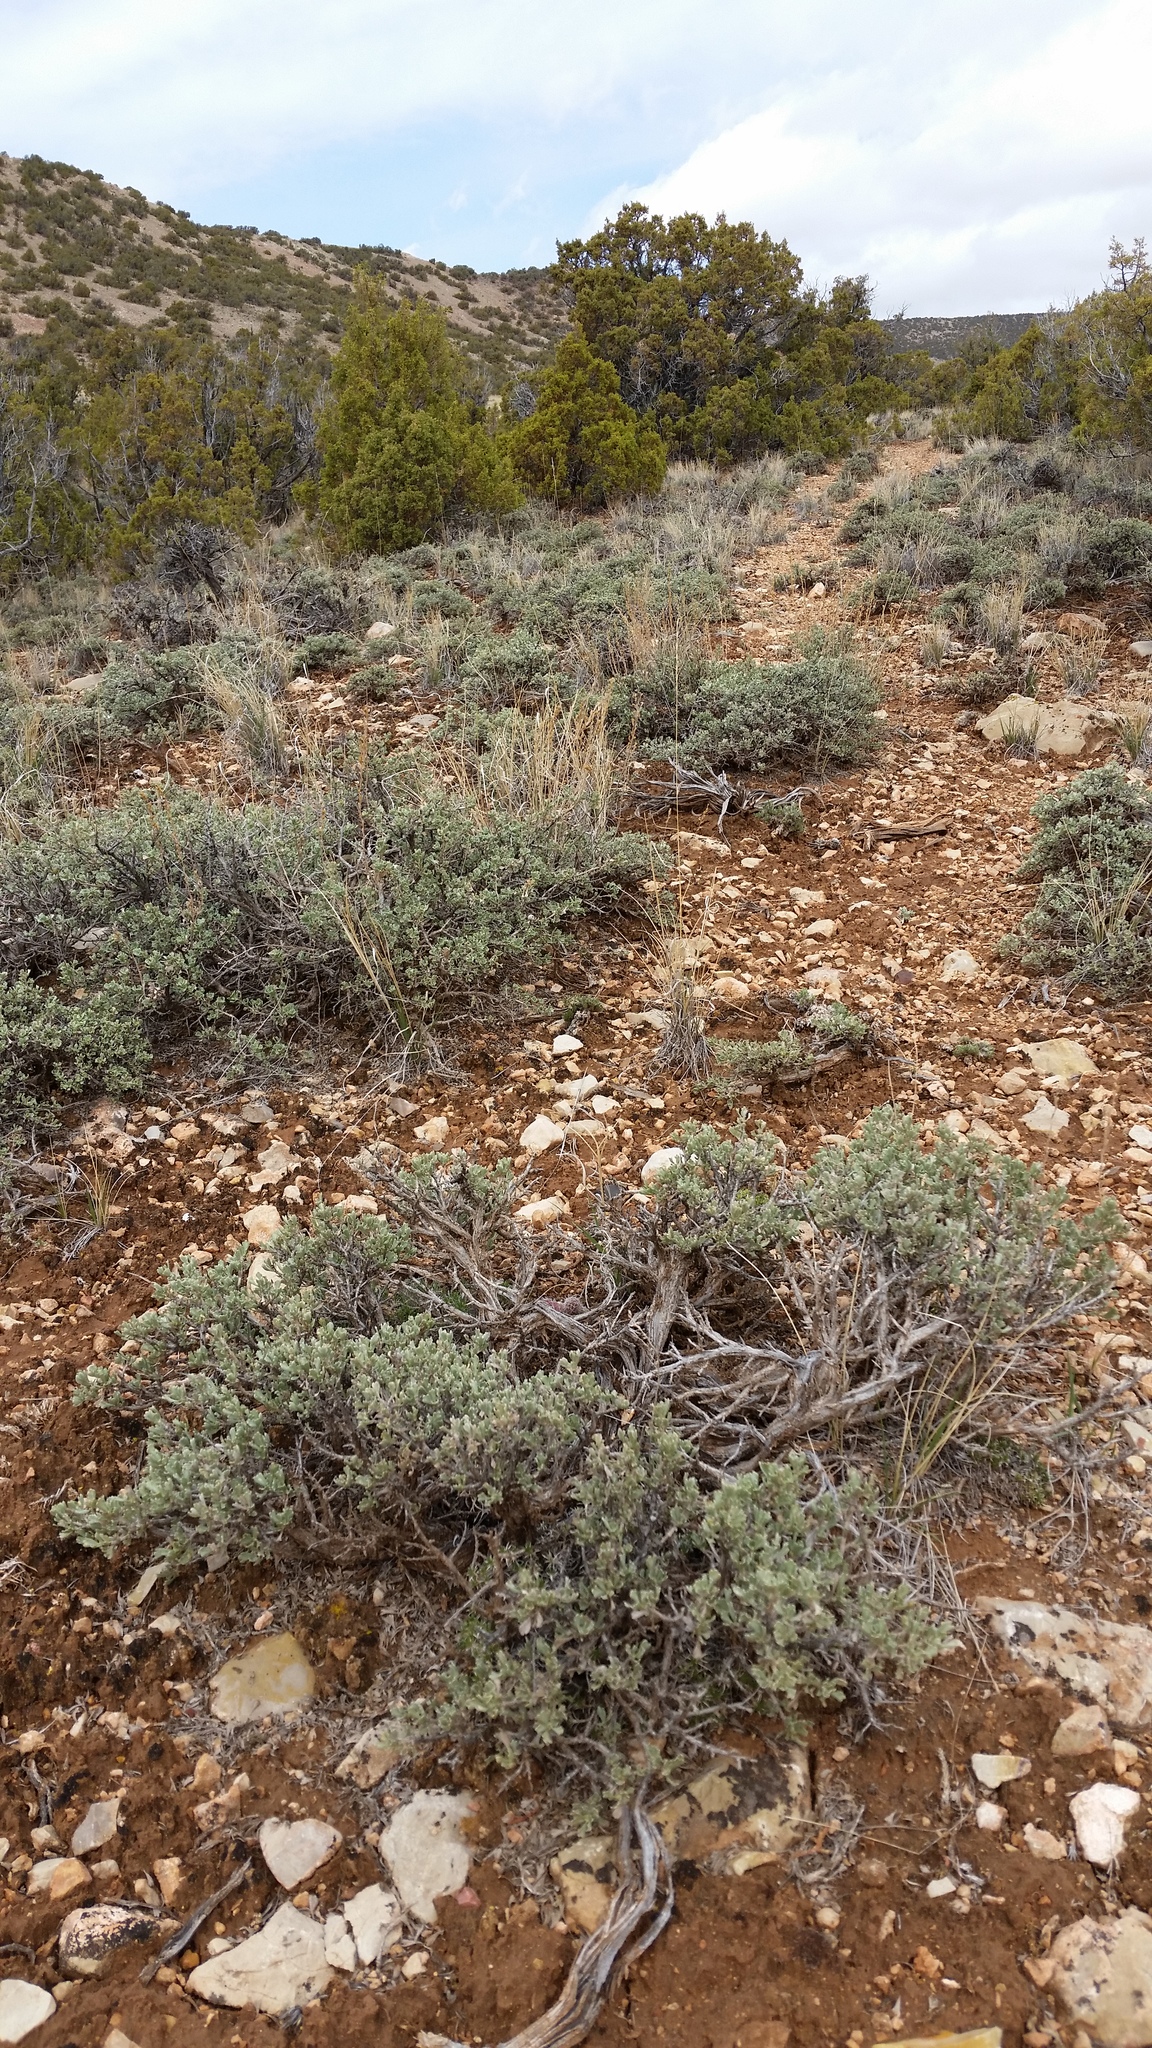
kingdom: Plantae
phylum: Tracheophyta
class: Magnoliopsida
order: Asterales
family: Asteraceae
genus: Artemisia
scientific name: Artemisia nova
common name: Black-sage
